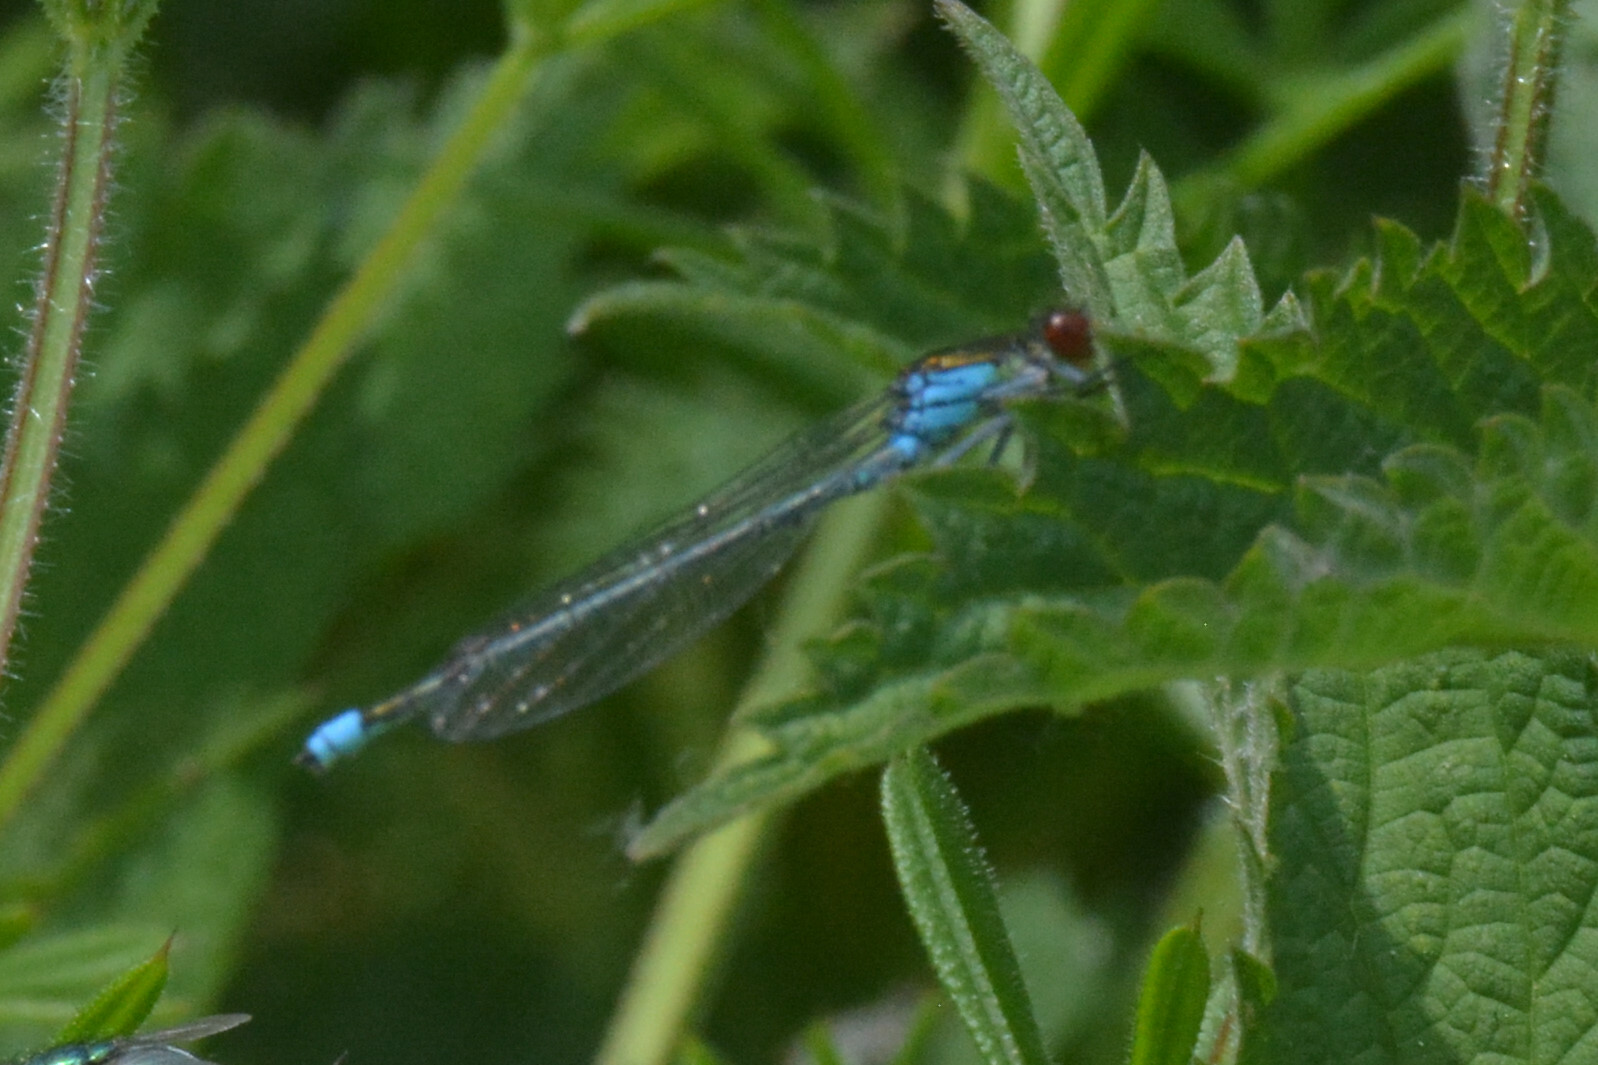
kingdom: Animalia
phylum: Arthropoda
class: Insecta
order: Odonata
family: Coenagrionidae
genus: Erythromma
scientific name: Erythromma najas
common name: Red-eyed damselfly
